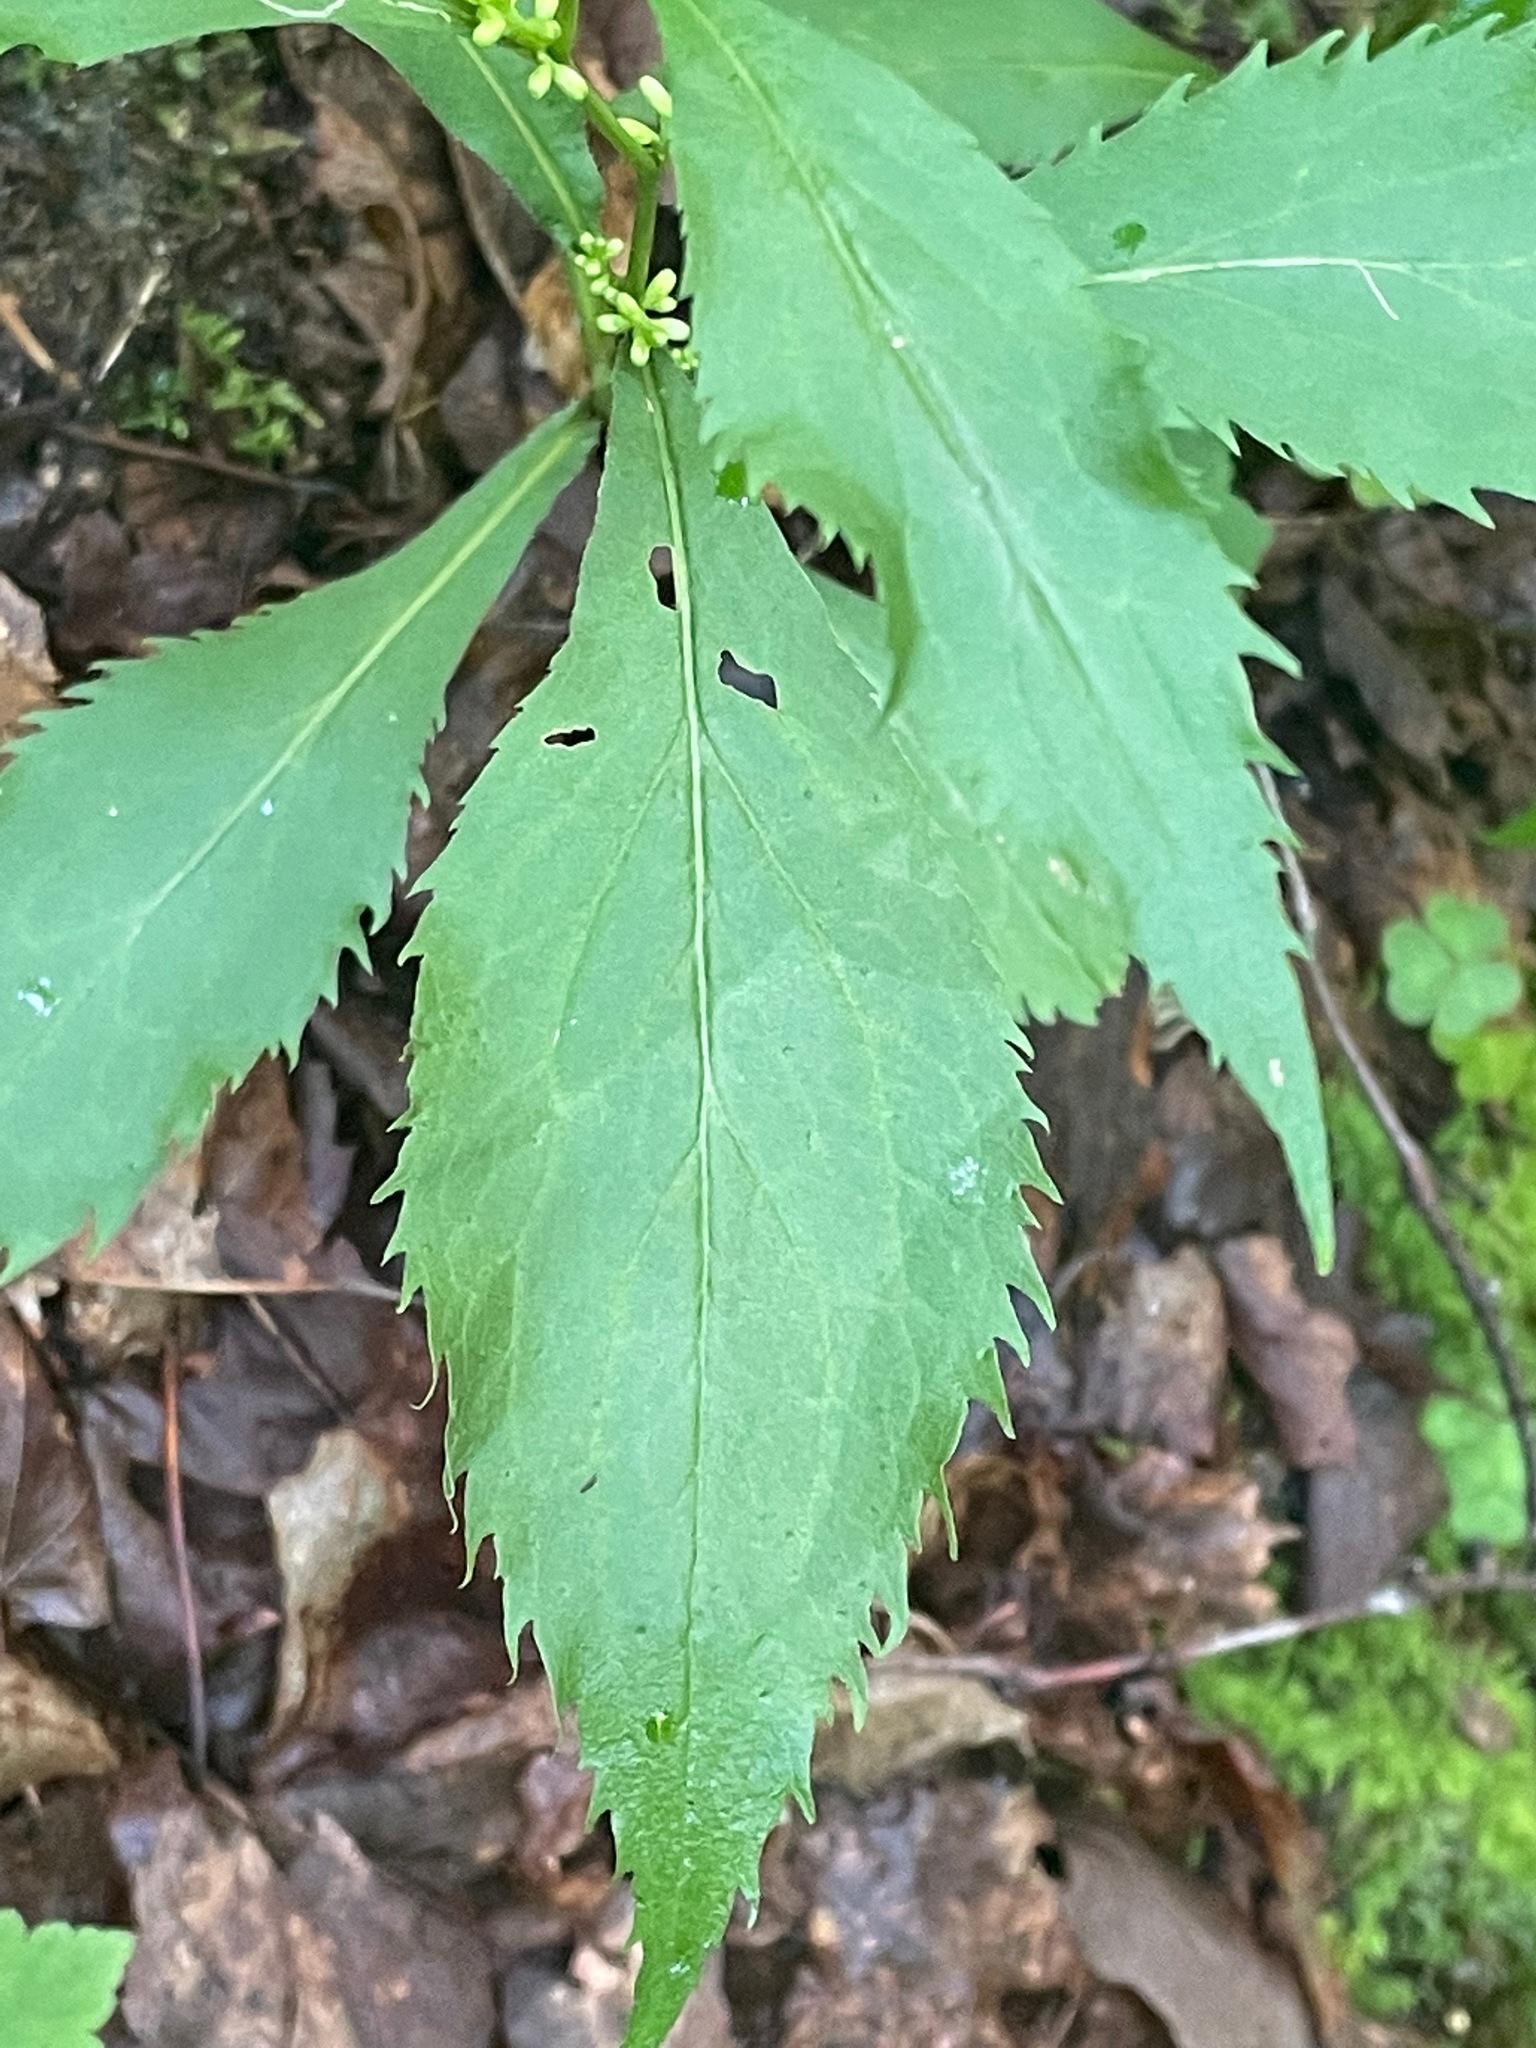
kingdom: Plantae
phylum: Tracheophyta
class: Magnoliopsida
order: Asterales
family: Asteraceae
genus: Solidago
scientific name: Solidago flexicaulis
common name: Zig-zag goldenrod
